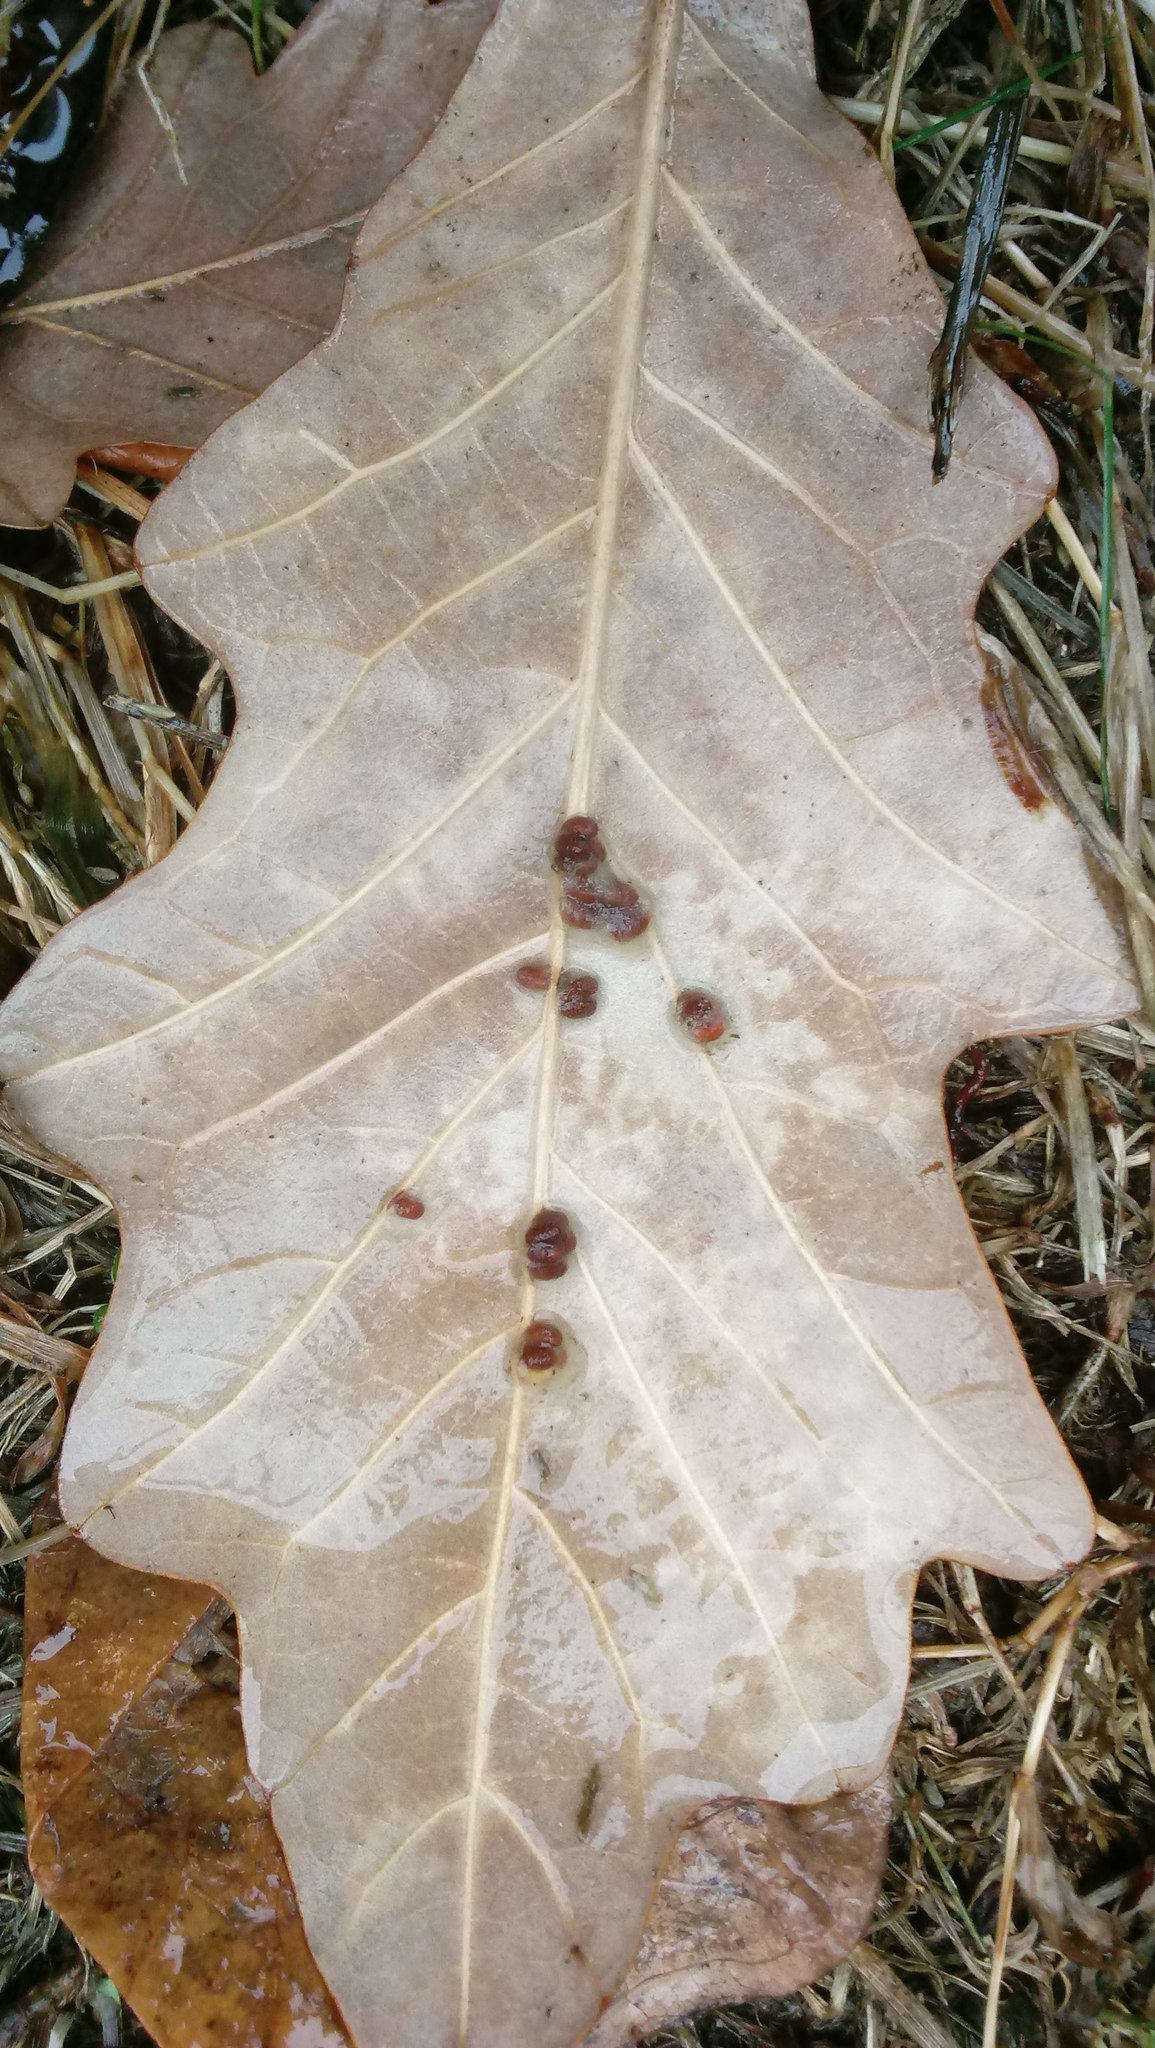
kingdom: Animalia
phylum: Arthropoda
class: Insecta
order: Hymenoptera
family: Cynipidae
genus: Andricus
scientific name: Andricus Druon ignotum
